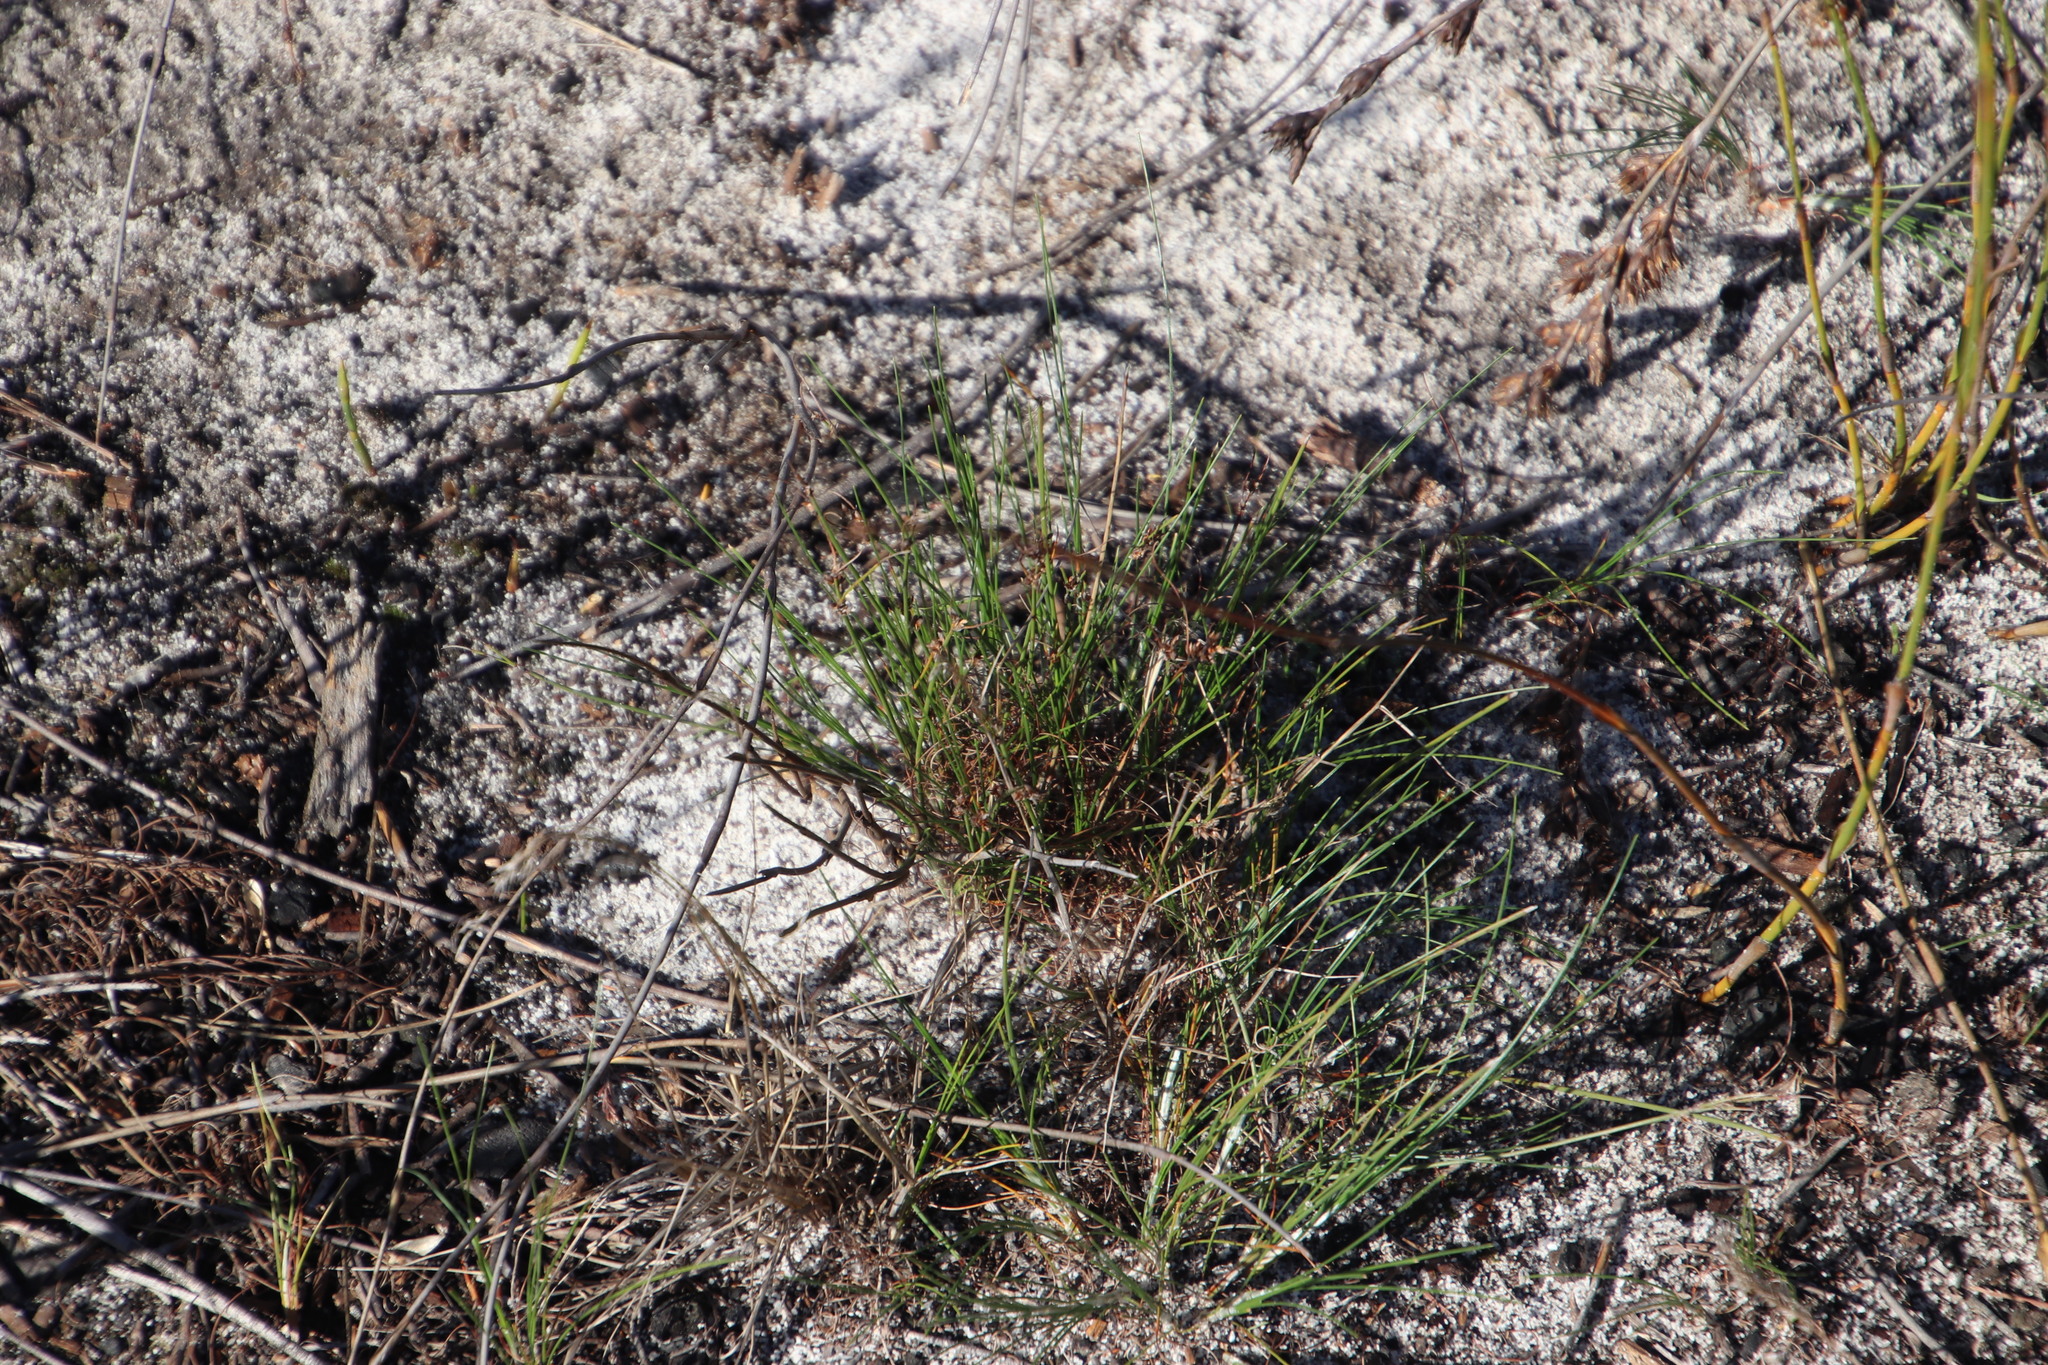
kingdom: Plantae
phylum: Tracheophyta
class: Liliopsida
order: Poales
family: Cyperaceae
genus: Ficinia
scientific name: Ficinia bulbosa
